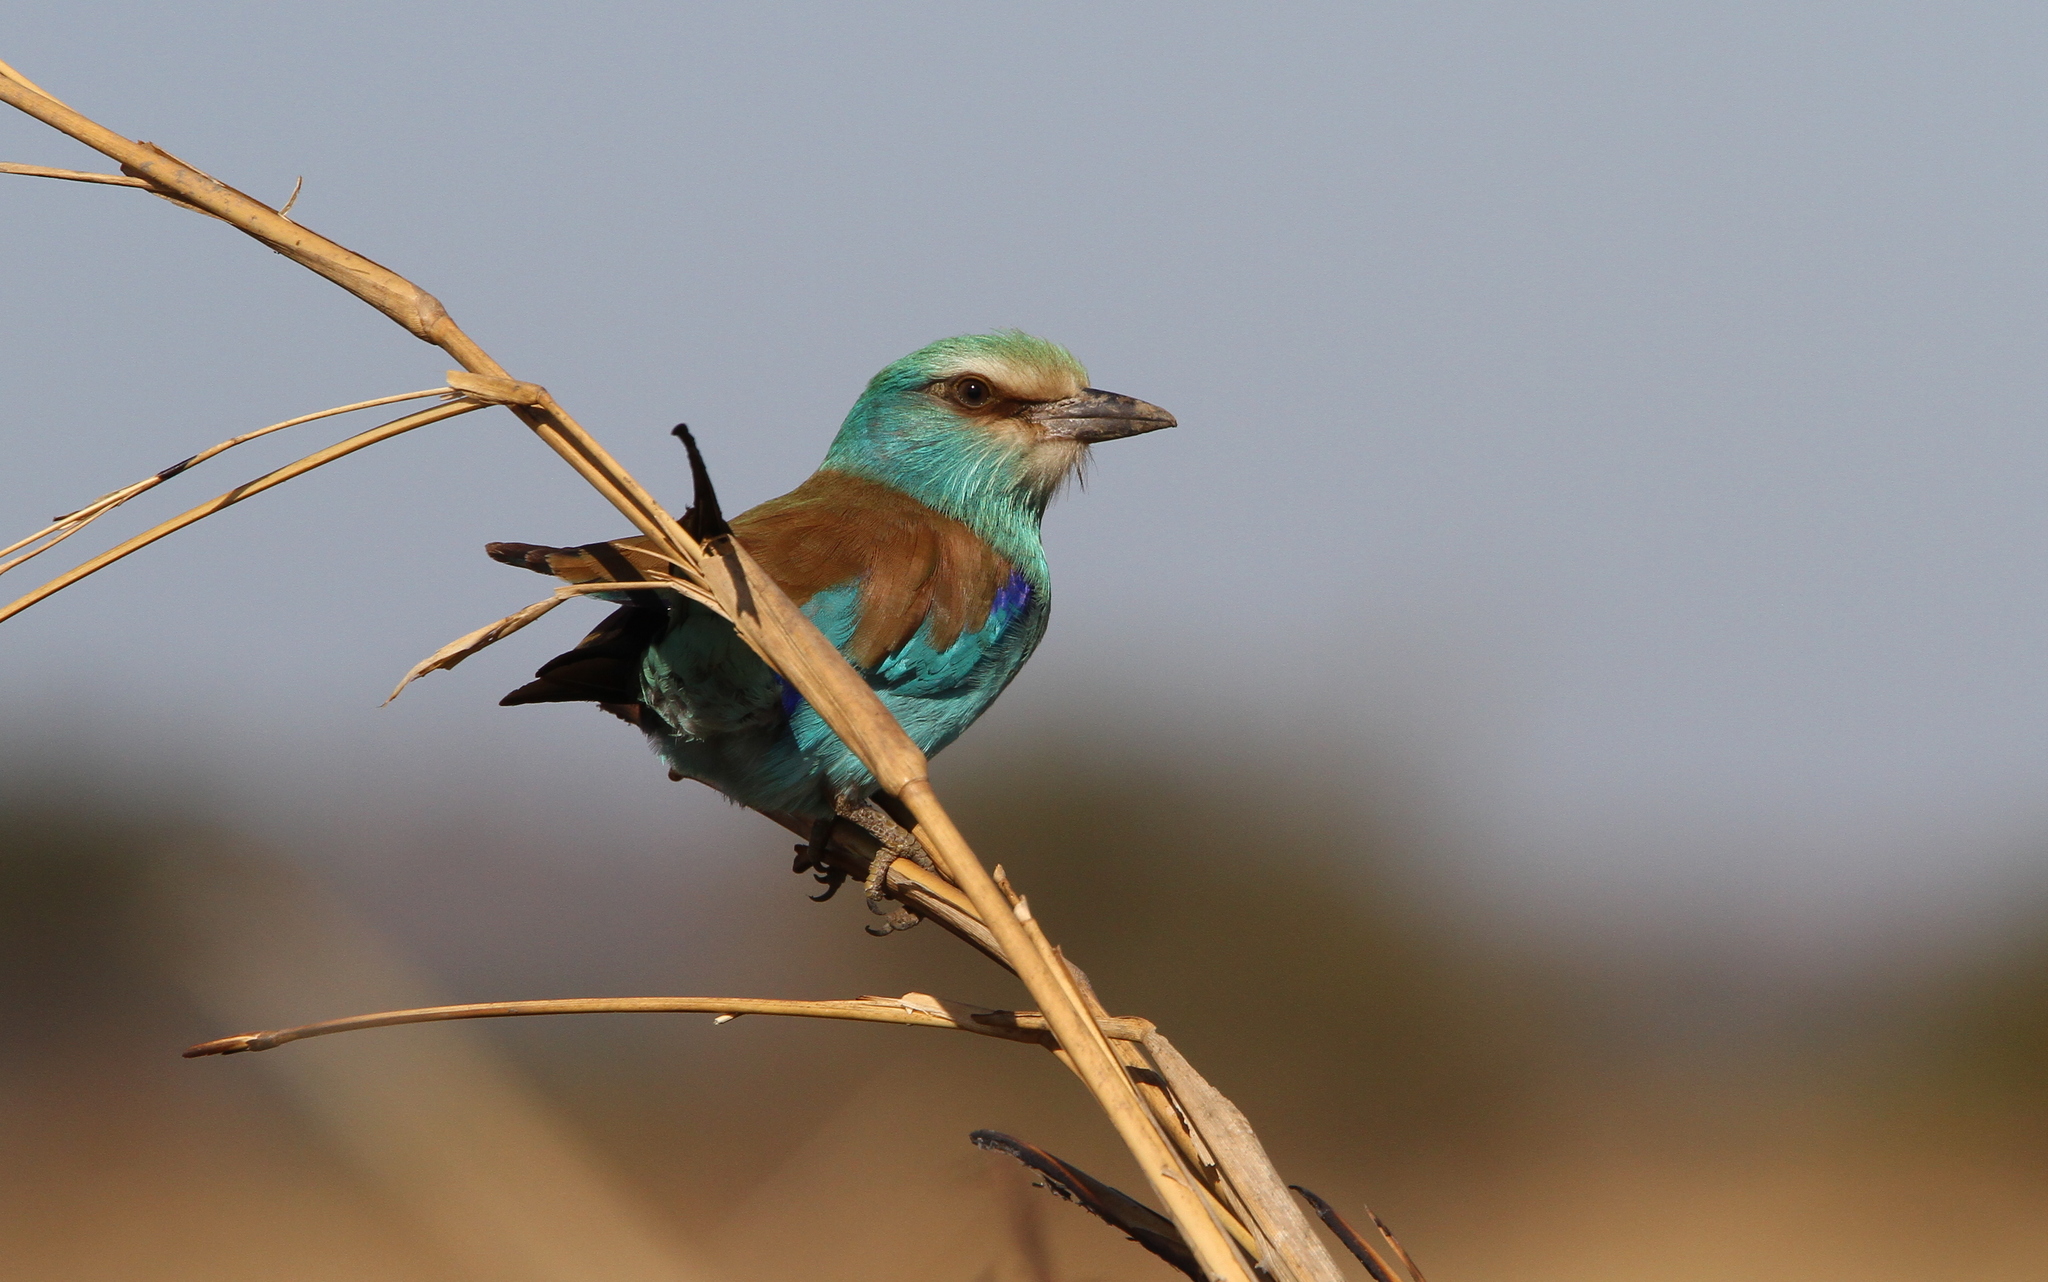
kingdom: Animalia
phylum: Chordata
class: Aves
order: Coraciiformes
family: Coraciidae
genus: Coracias
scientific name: Coracias abyssinicus
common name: Abyssinian roller
